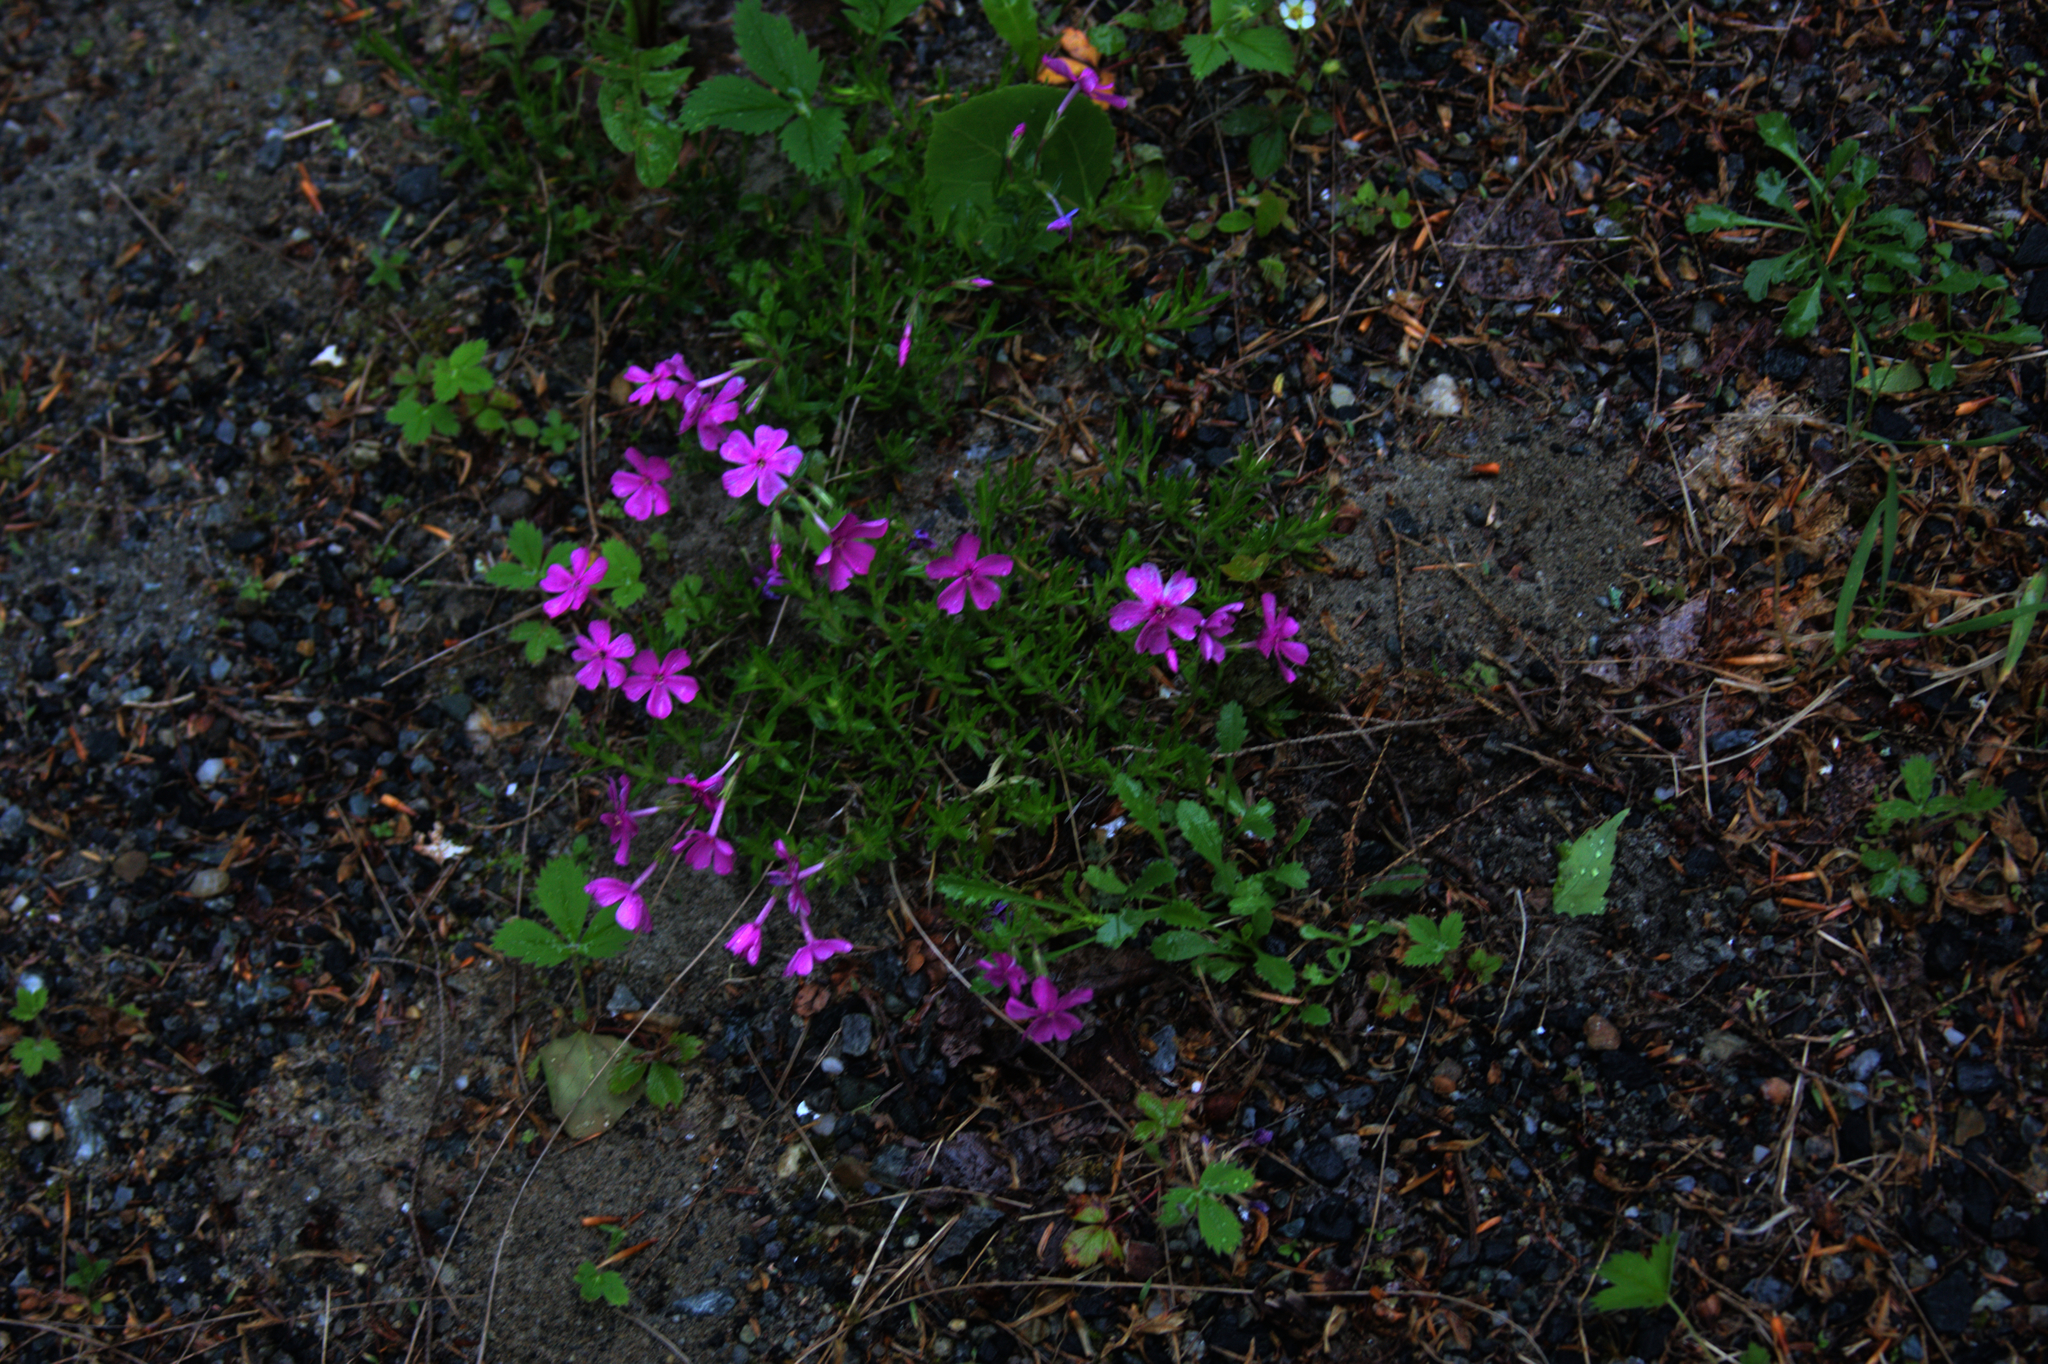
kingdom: Plantae
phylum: Tracheophyta
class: Magnoliopsida
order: Ericales
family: Polemoniaceae
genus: Phlox
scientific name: Phlox subulata
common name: Moss phlox
